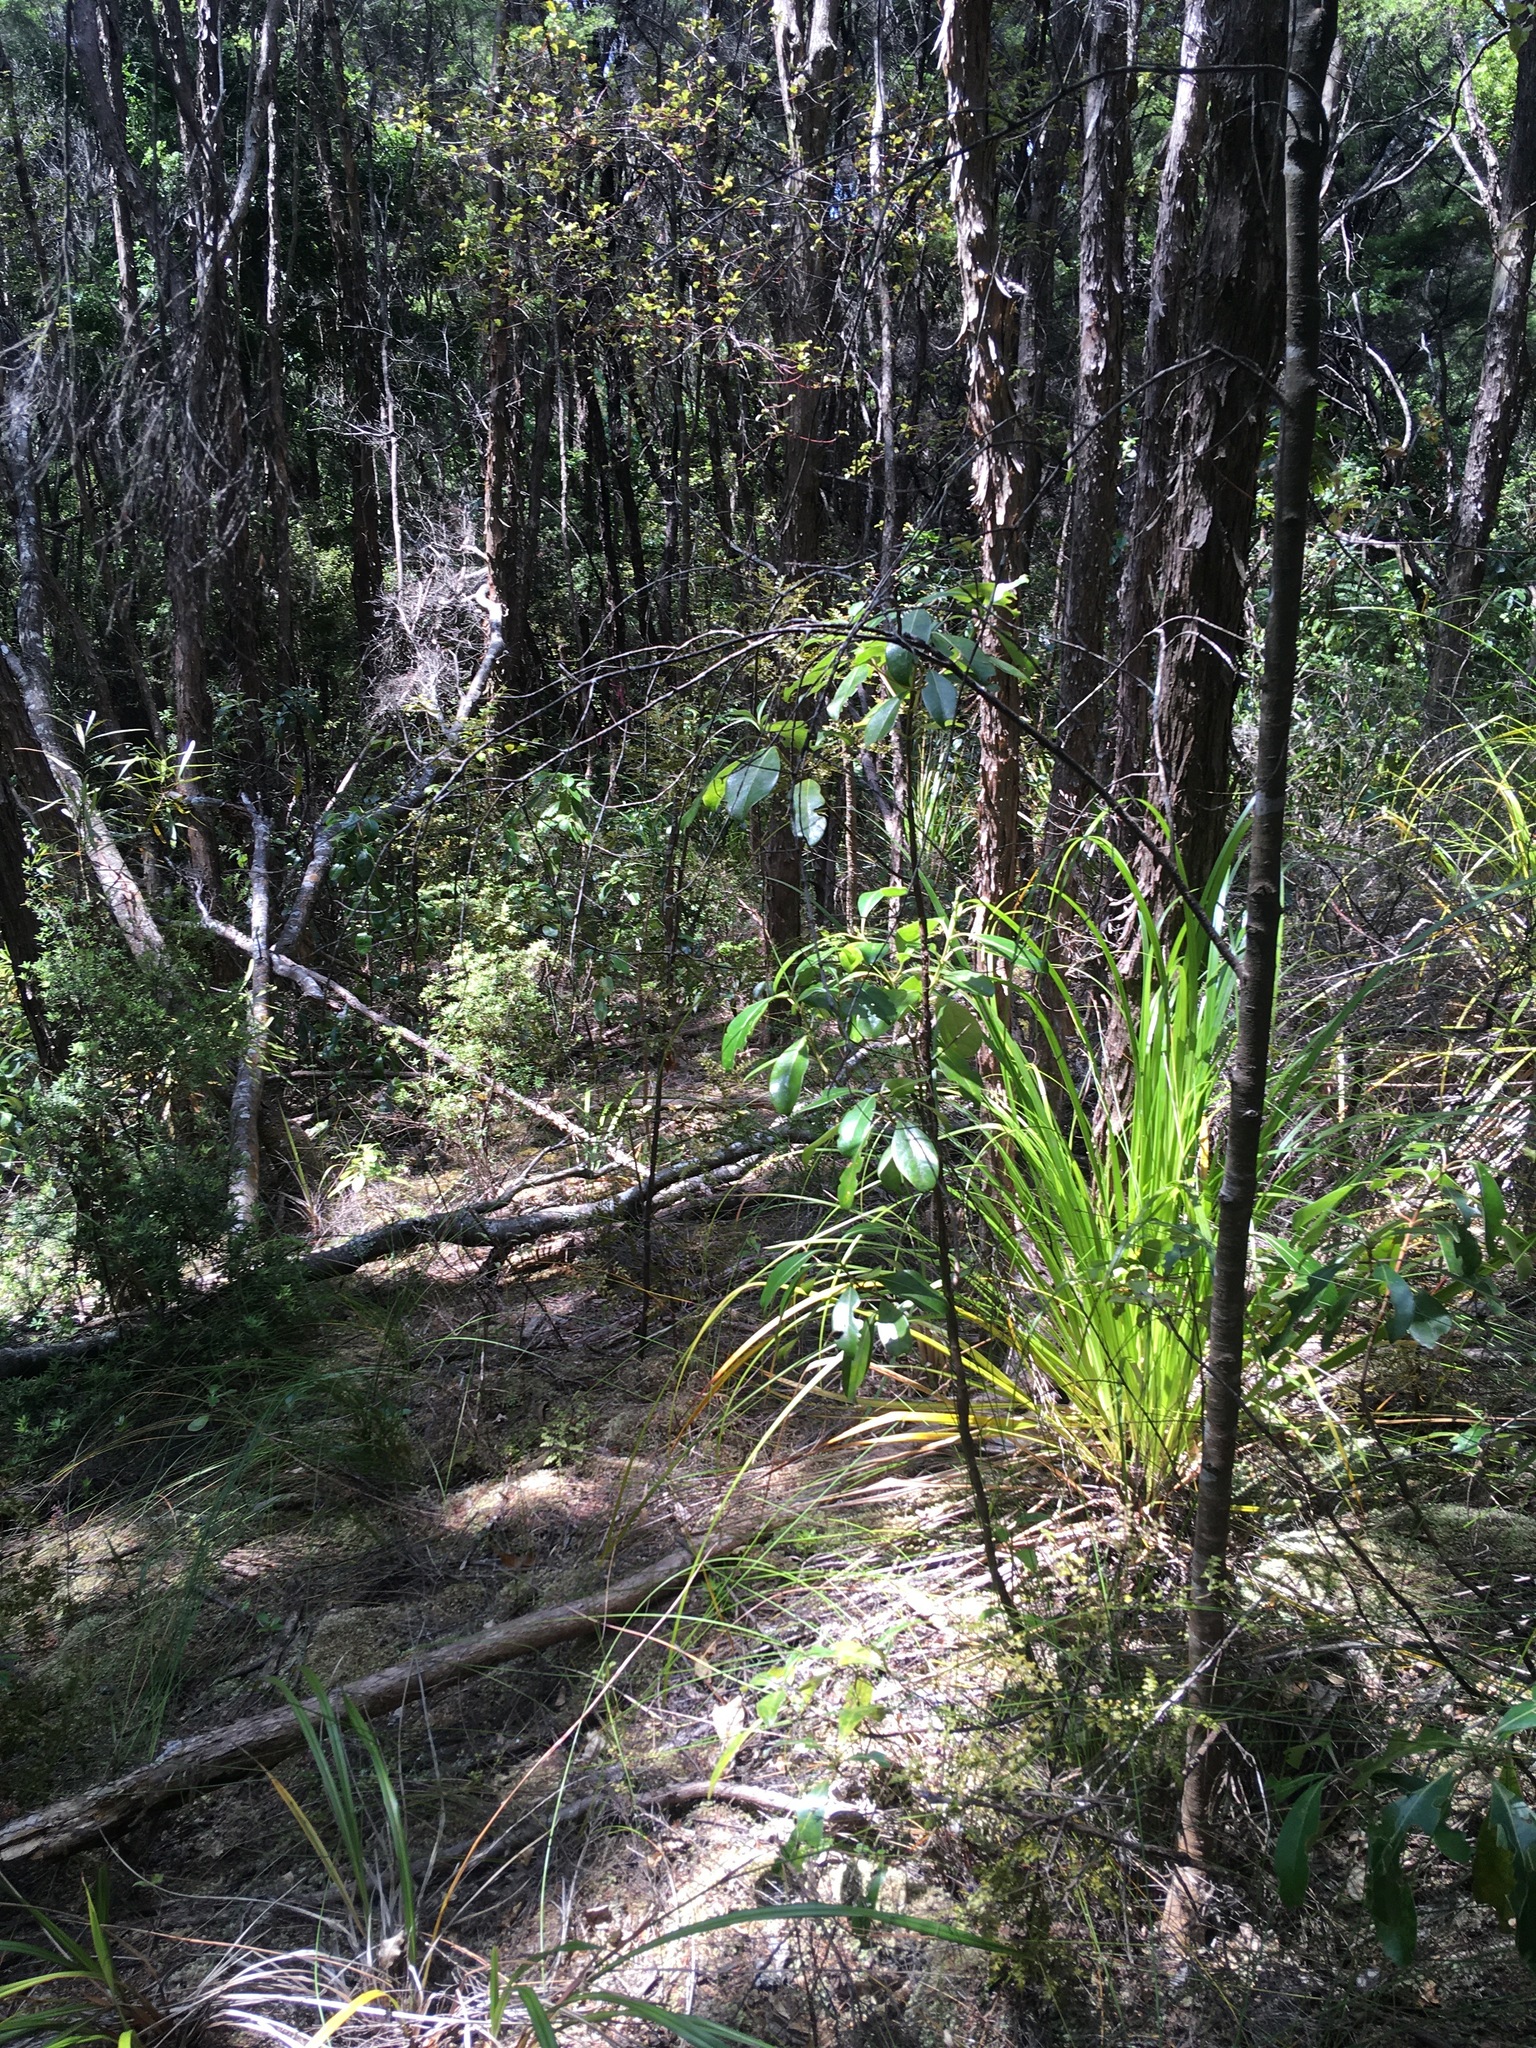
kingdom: Plantae
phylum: Tracheophyta
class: Magnoliopsida
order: Gentianales
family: Rubiaceae
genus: Coprosma
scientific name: Coprosma lucida
